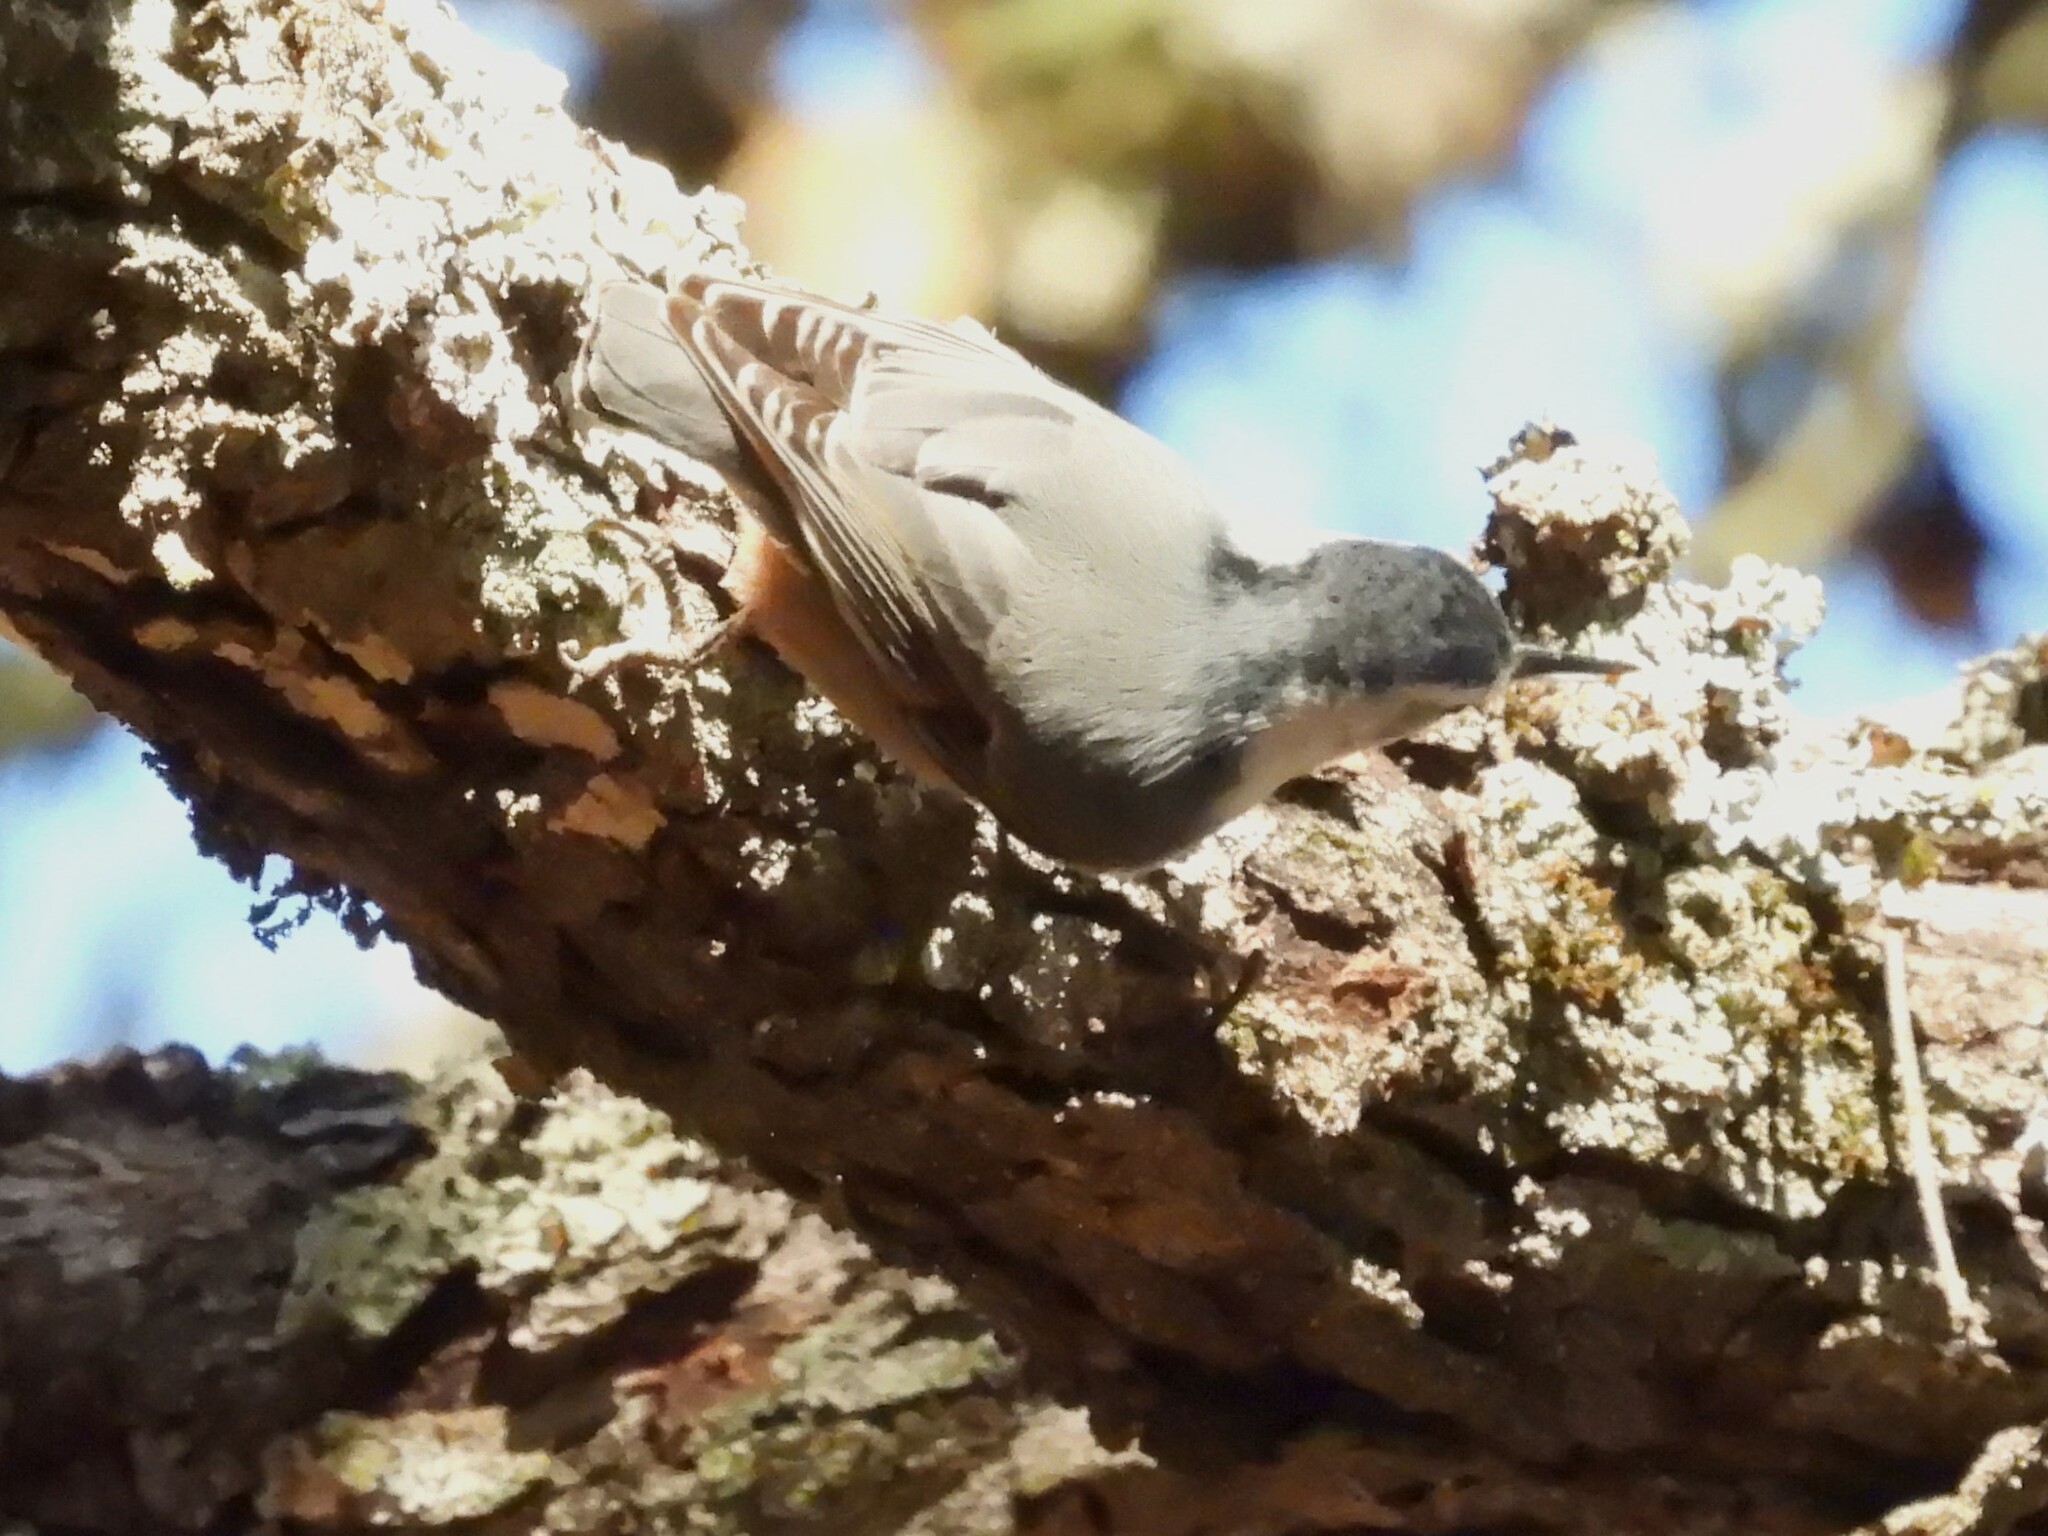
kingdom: Animalia
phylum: Chordata
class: Aves
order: Passeriformes
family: Paridae
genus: Poecile
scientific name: Poecile rufescens
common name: Chestnut-backed chickadee
